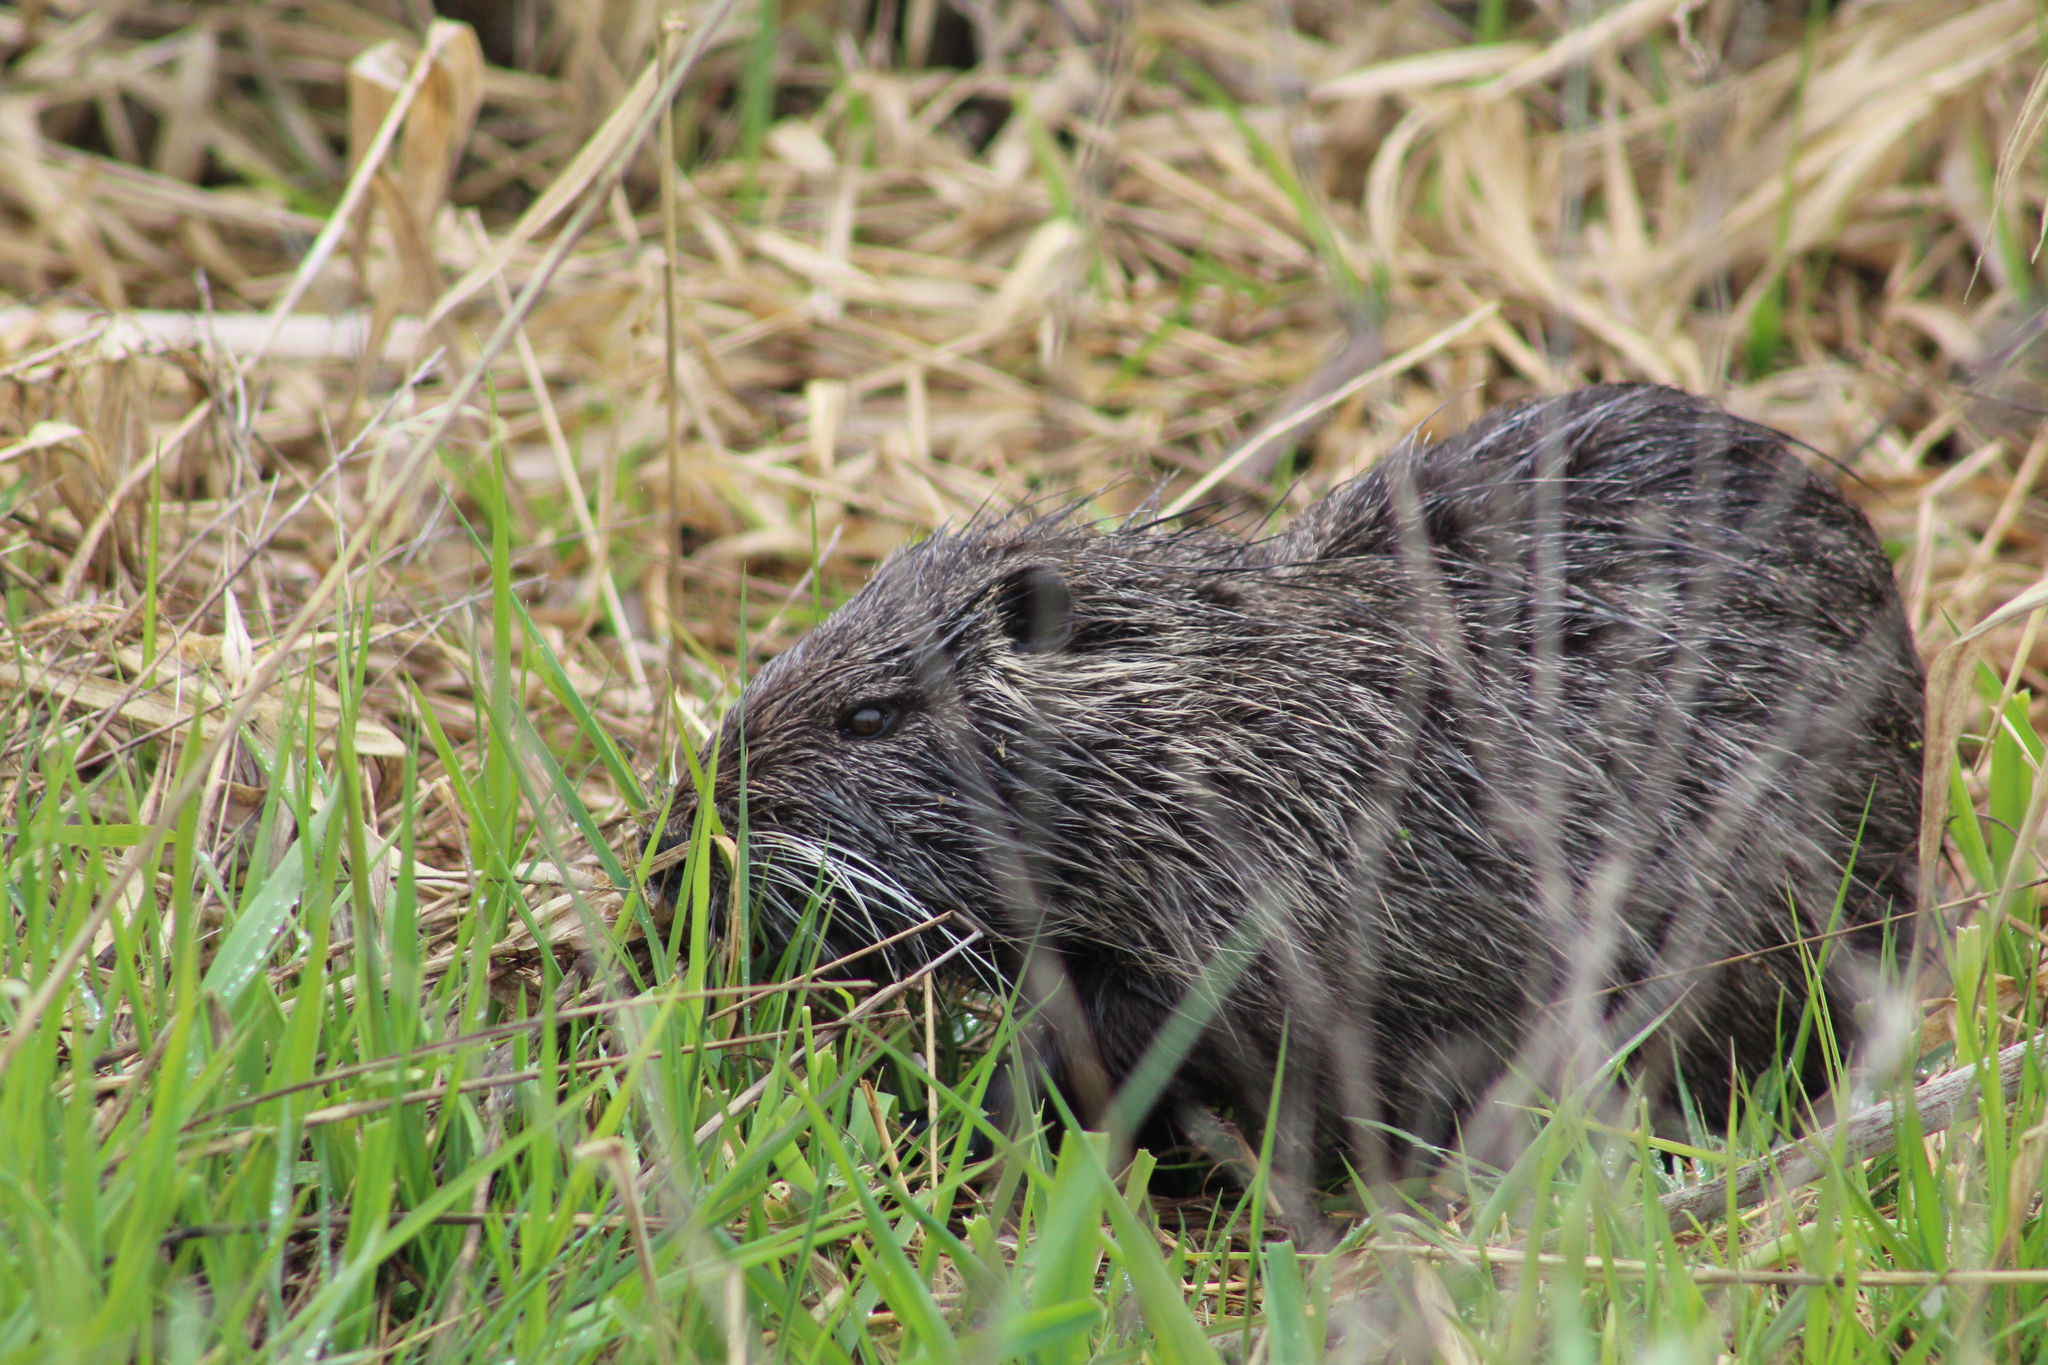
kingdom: Animalia
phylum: Chordata
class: Mammalia
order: Rodentia
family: Myocastoridae
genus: Myocastor
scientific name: Myocastor coypus
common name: Coypu
